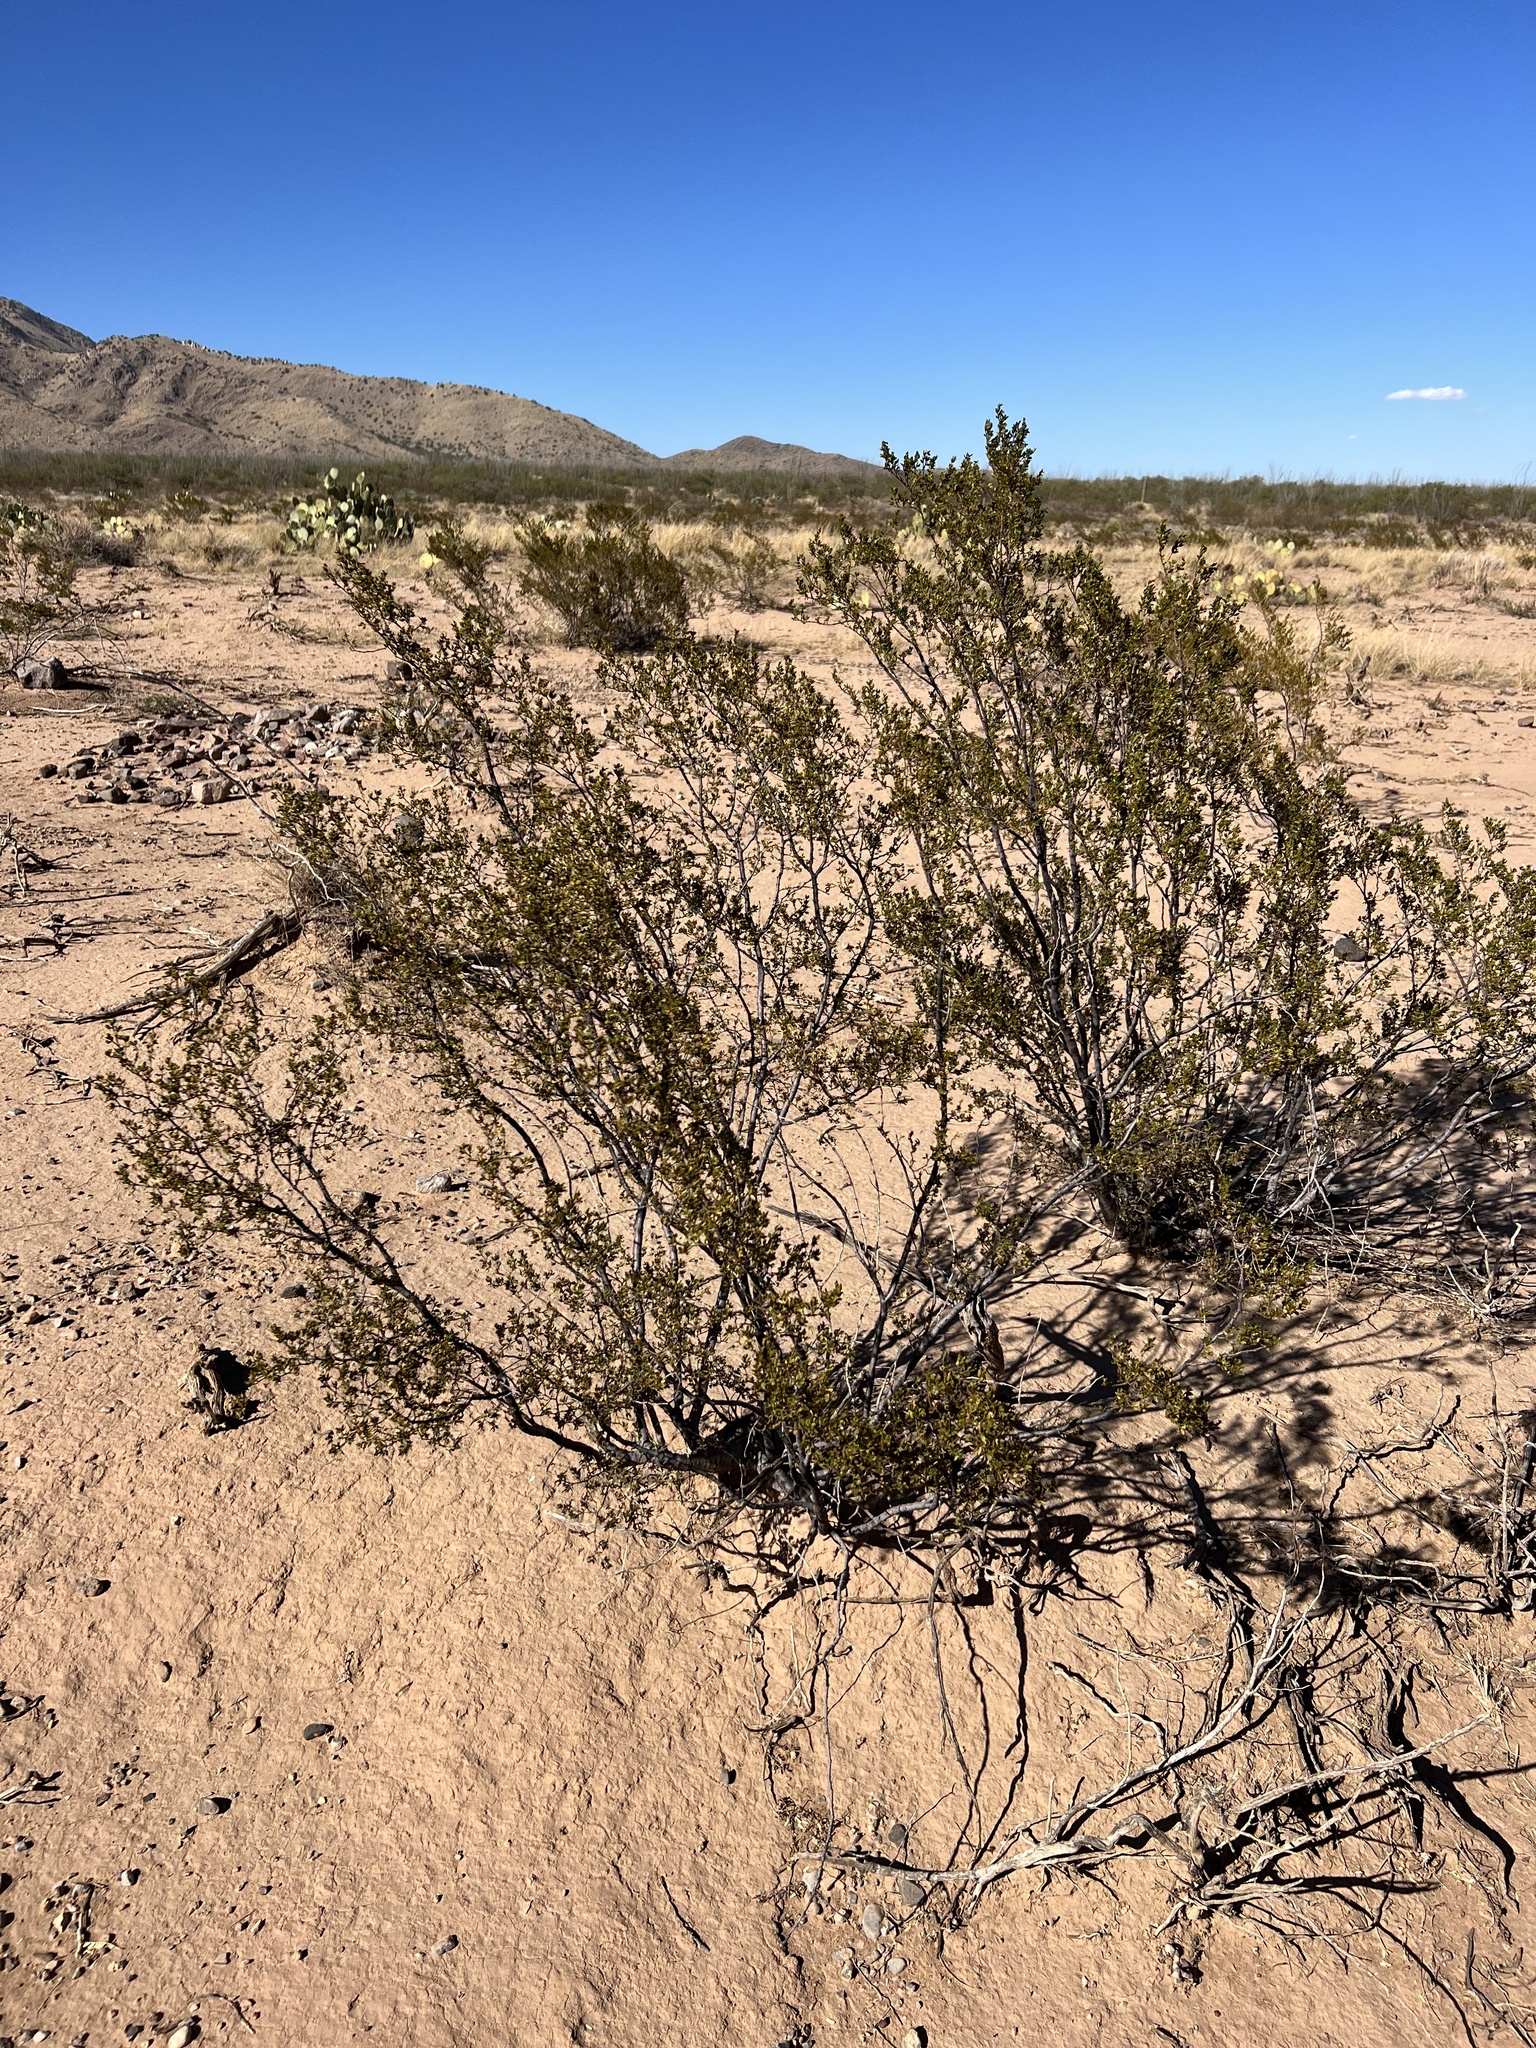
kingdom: Plantae
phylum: Tracheophyta
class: Magnoliopsida
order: Zygophyllales
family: Zygophyllaceae
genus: Larrea
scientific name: Larrea tridentata
